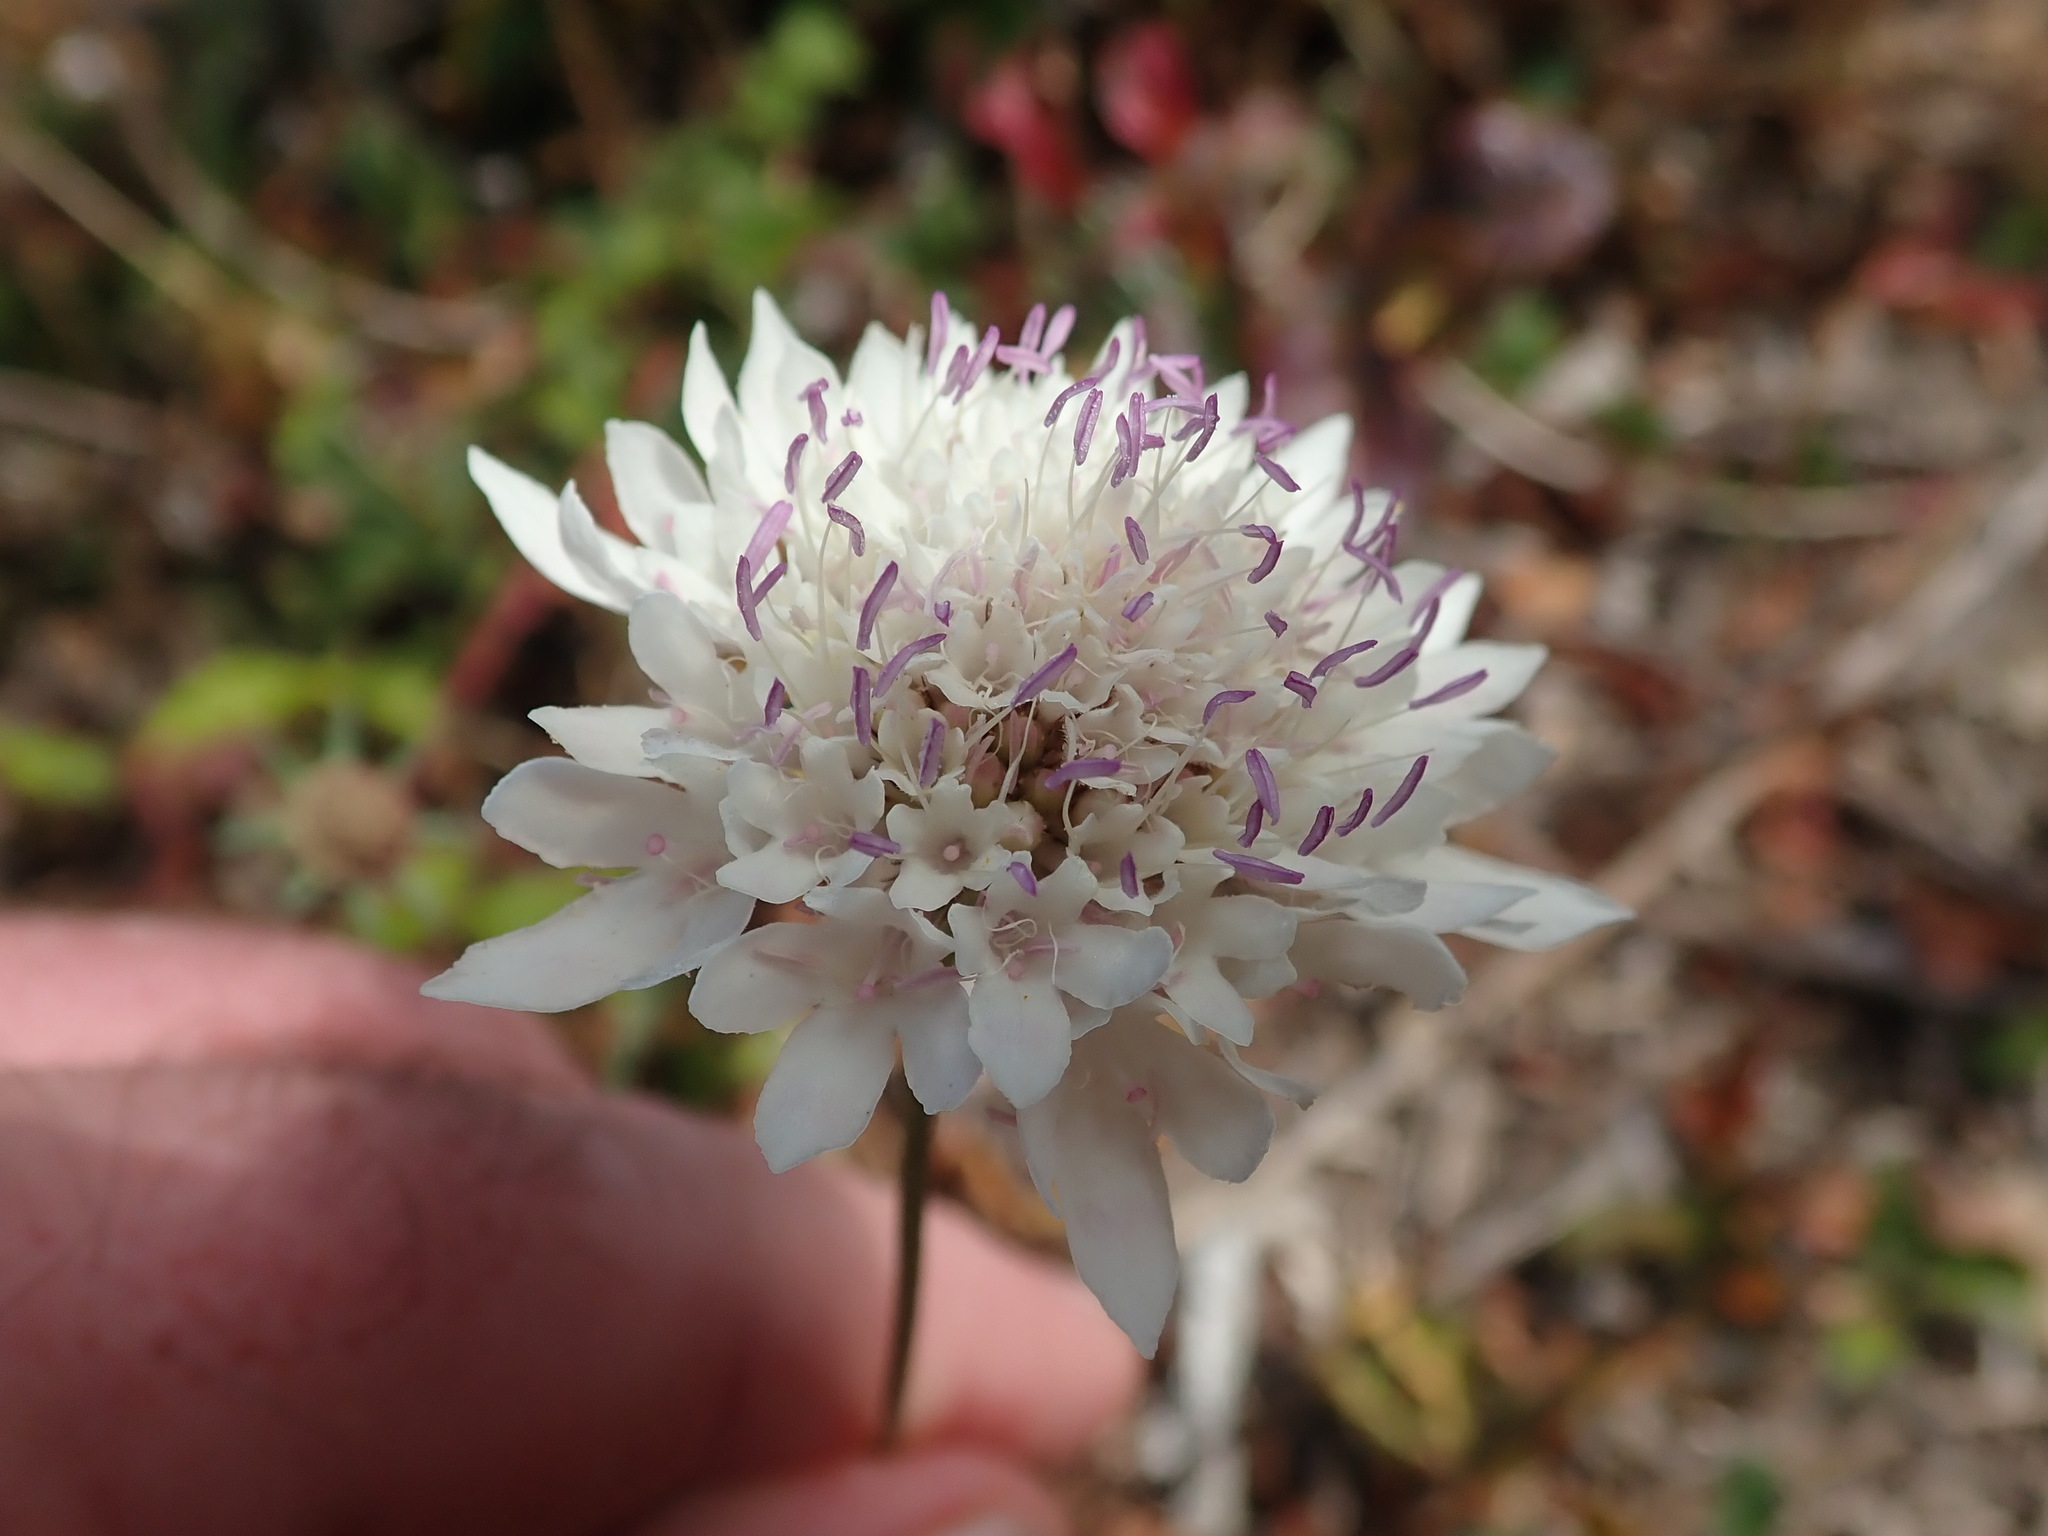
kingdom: Plantae
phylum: Tracheophyta
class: Magnoliopsida
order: Dipsacales
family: Caprifoliaceae
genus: Sixalix
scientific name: Sixalix atropurpurea
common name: Sweet scabious
